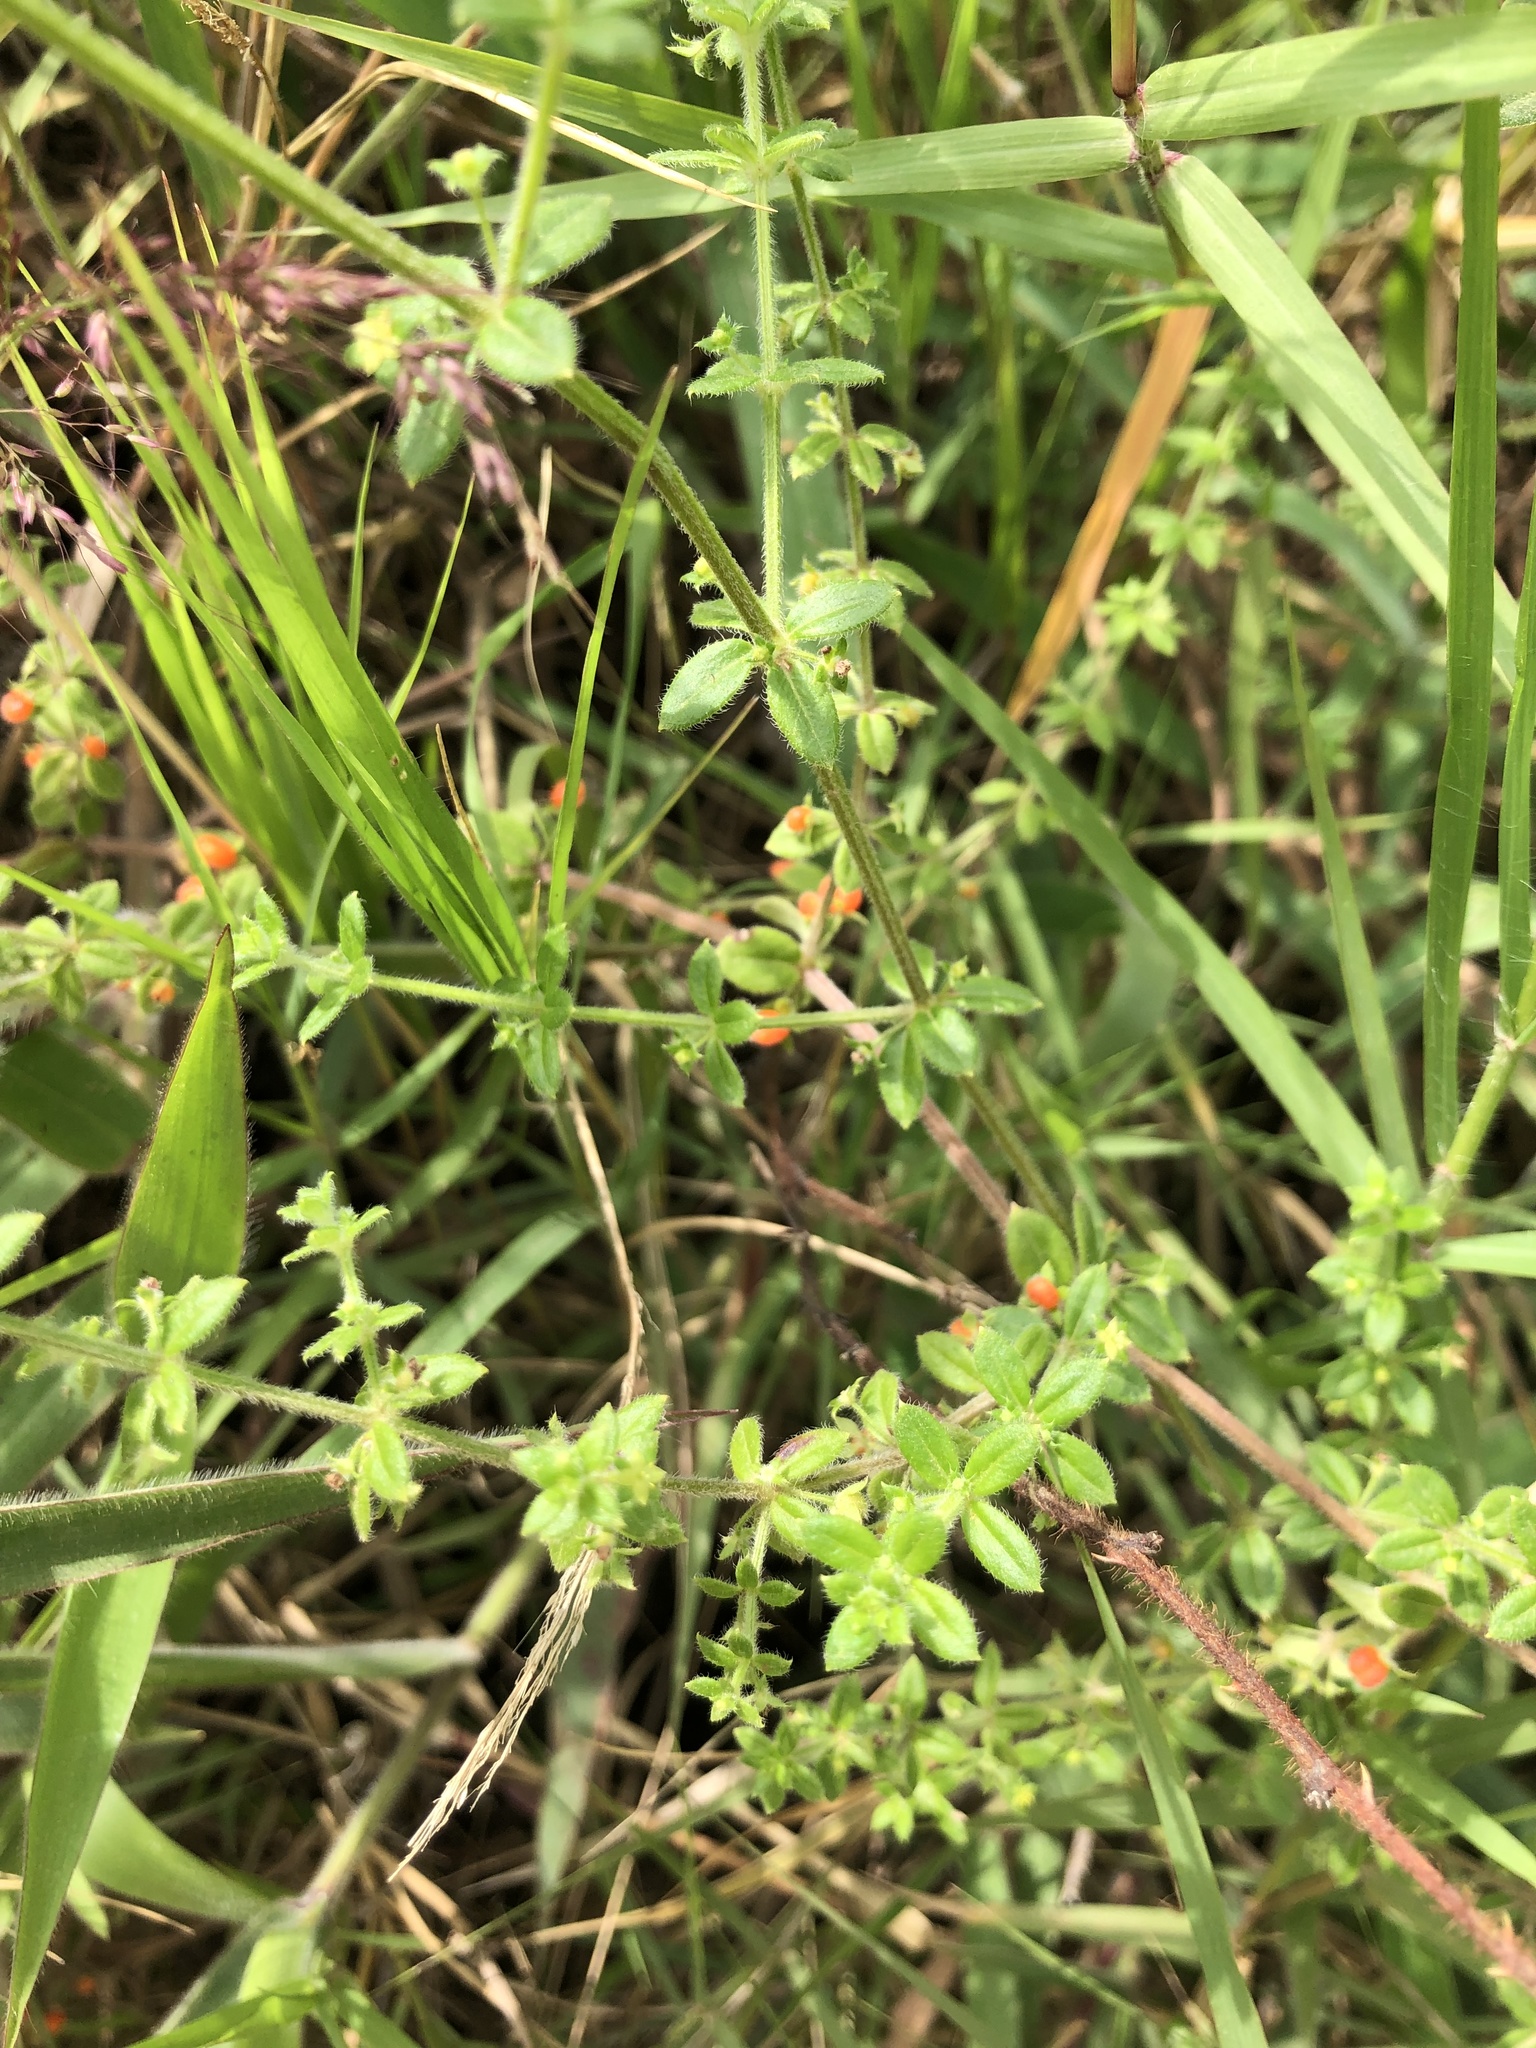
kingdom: Plantae
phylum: Tracheophyta
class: Magnoliopsida
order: Gentianales
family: Rubiaceae
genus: Galium
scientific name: Galium hypocarpium
